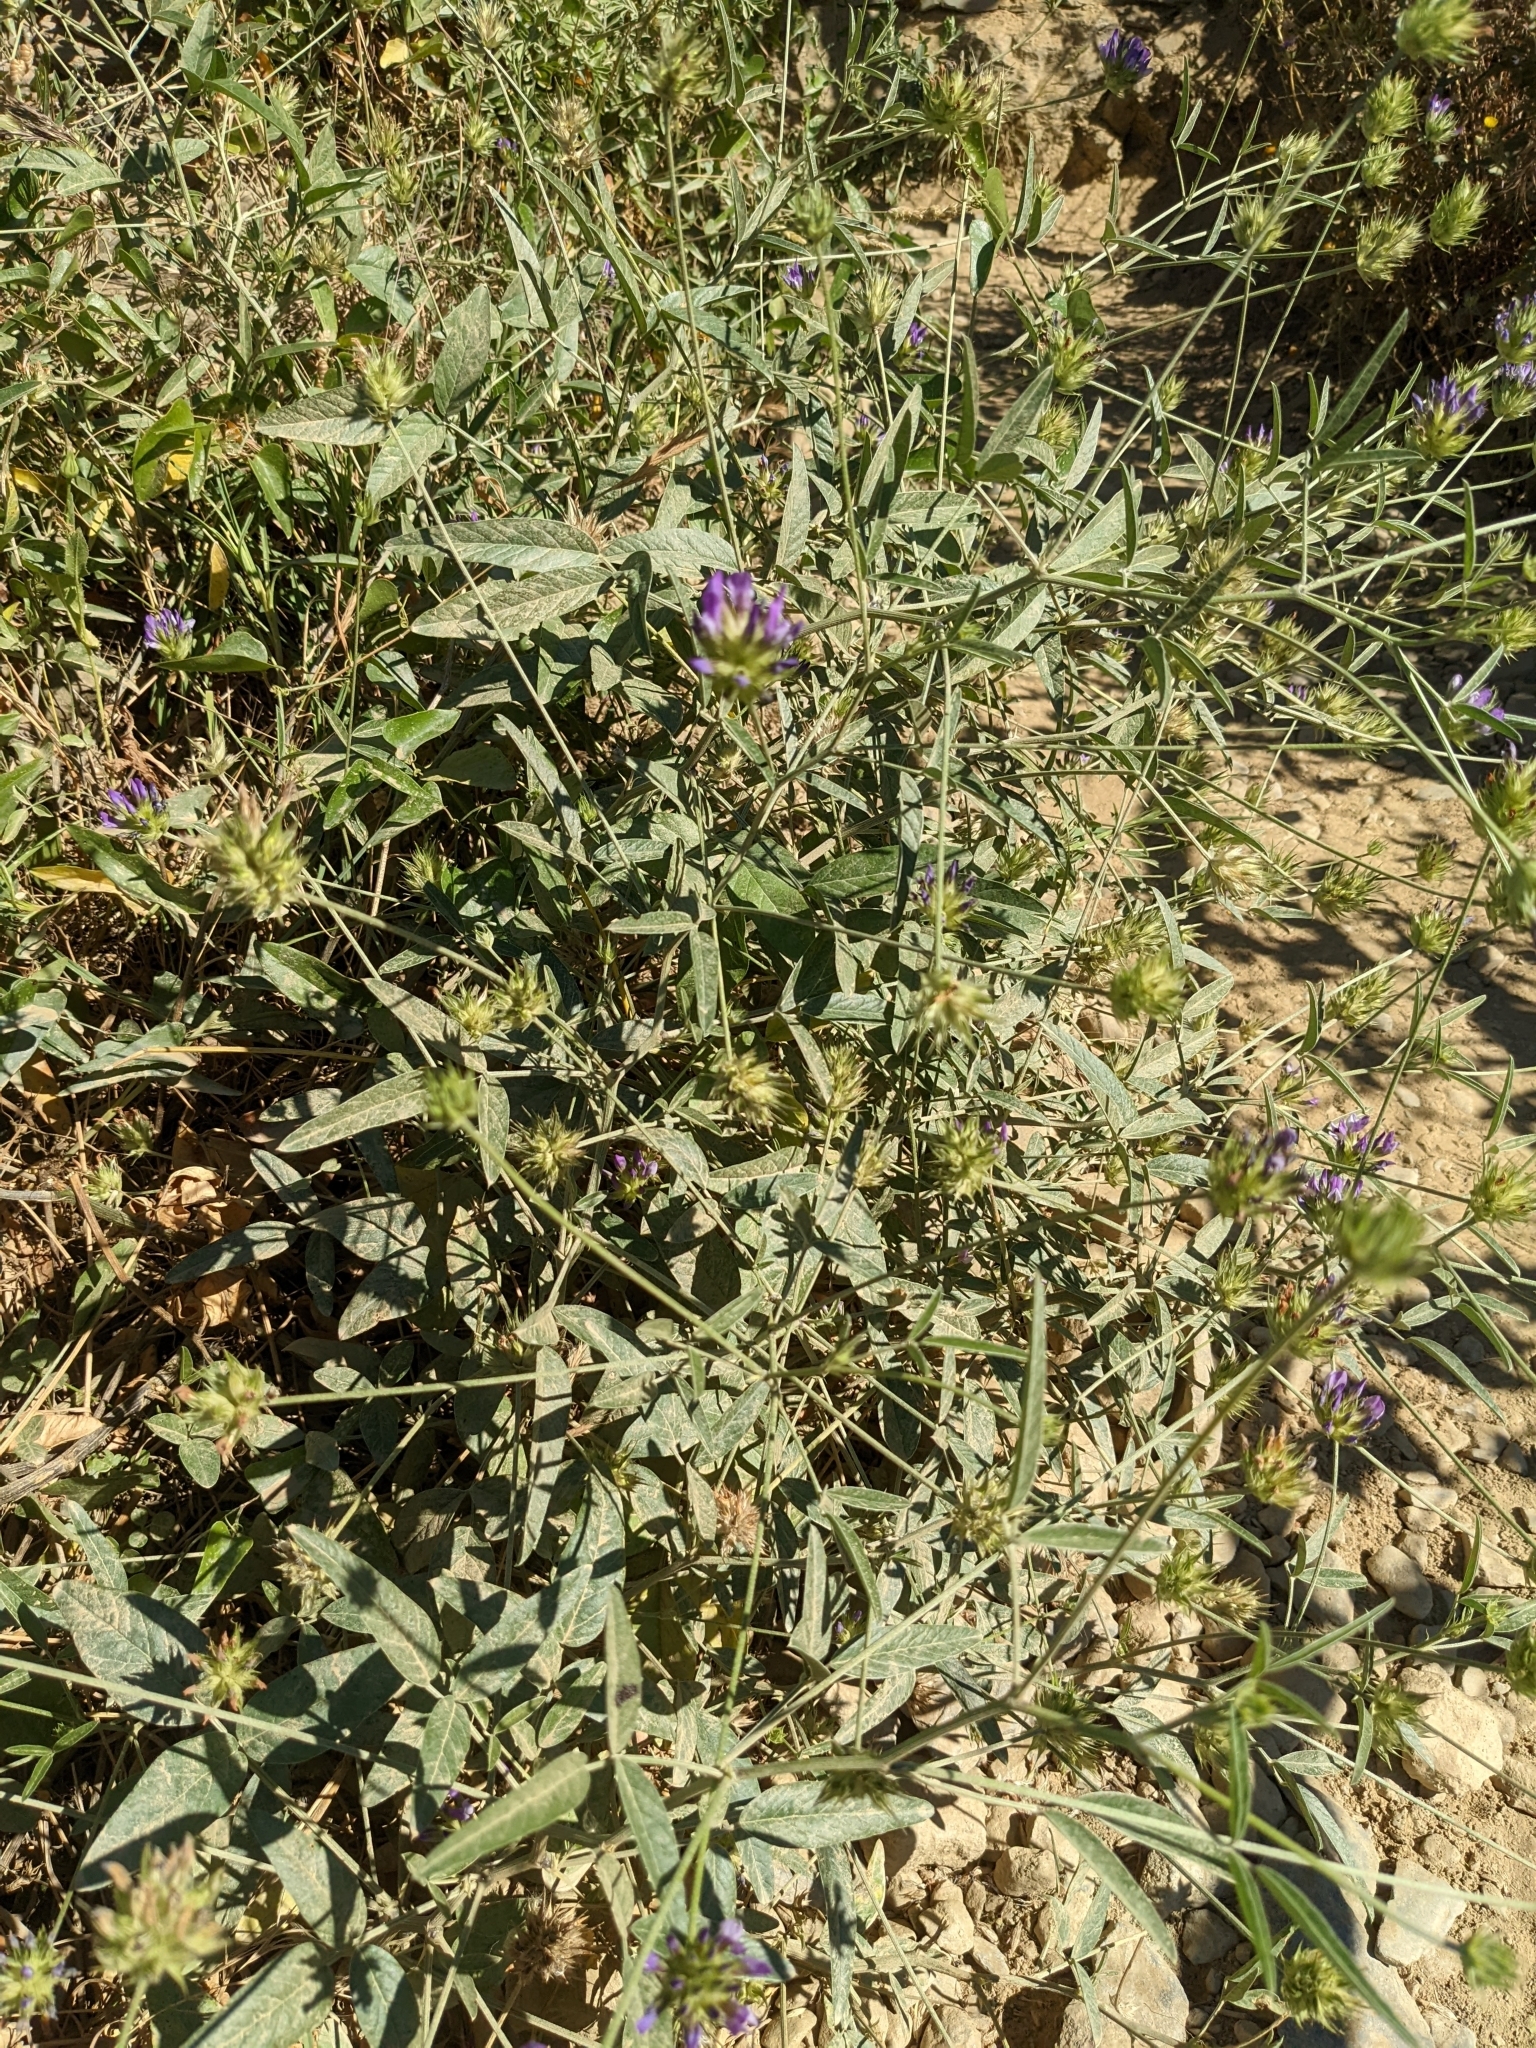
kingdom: Plantae
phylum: Tracheophyta
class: Magnoliopsida
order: Fabales
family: Fabaceae
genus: Bituminaria
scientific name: Bituminaria bituminosa
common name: Arabian pea
